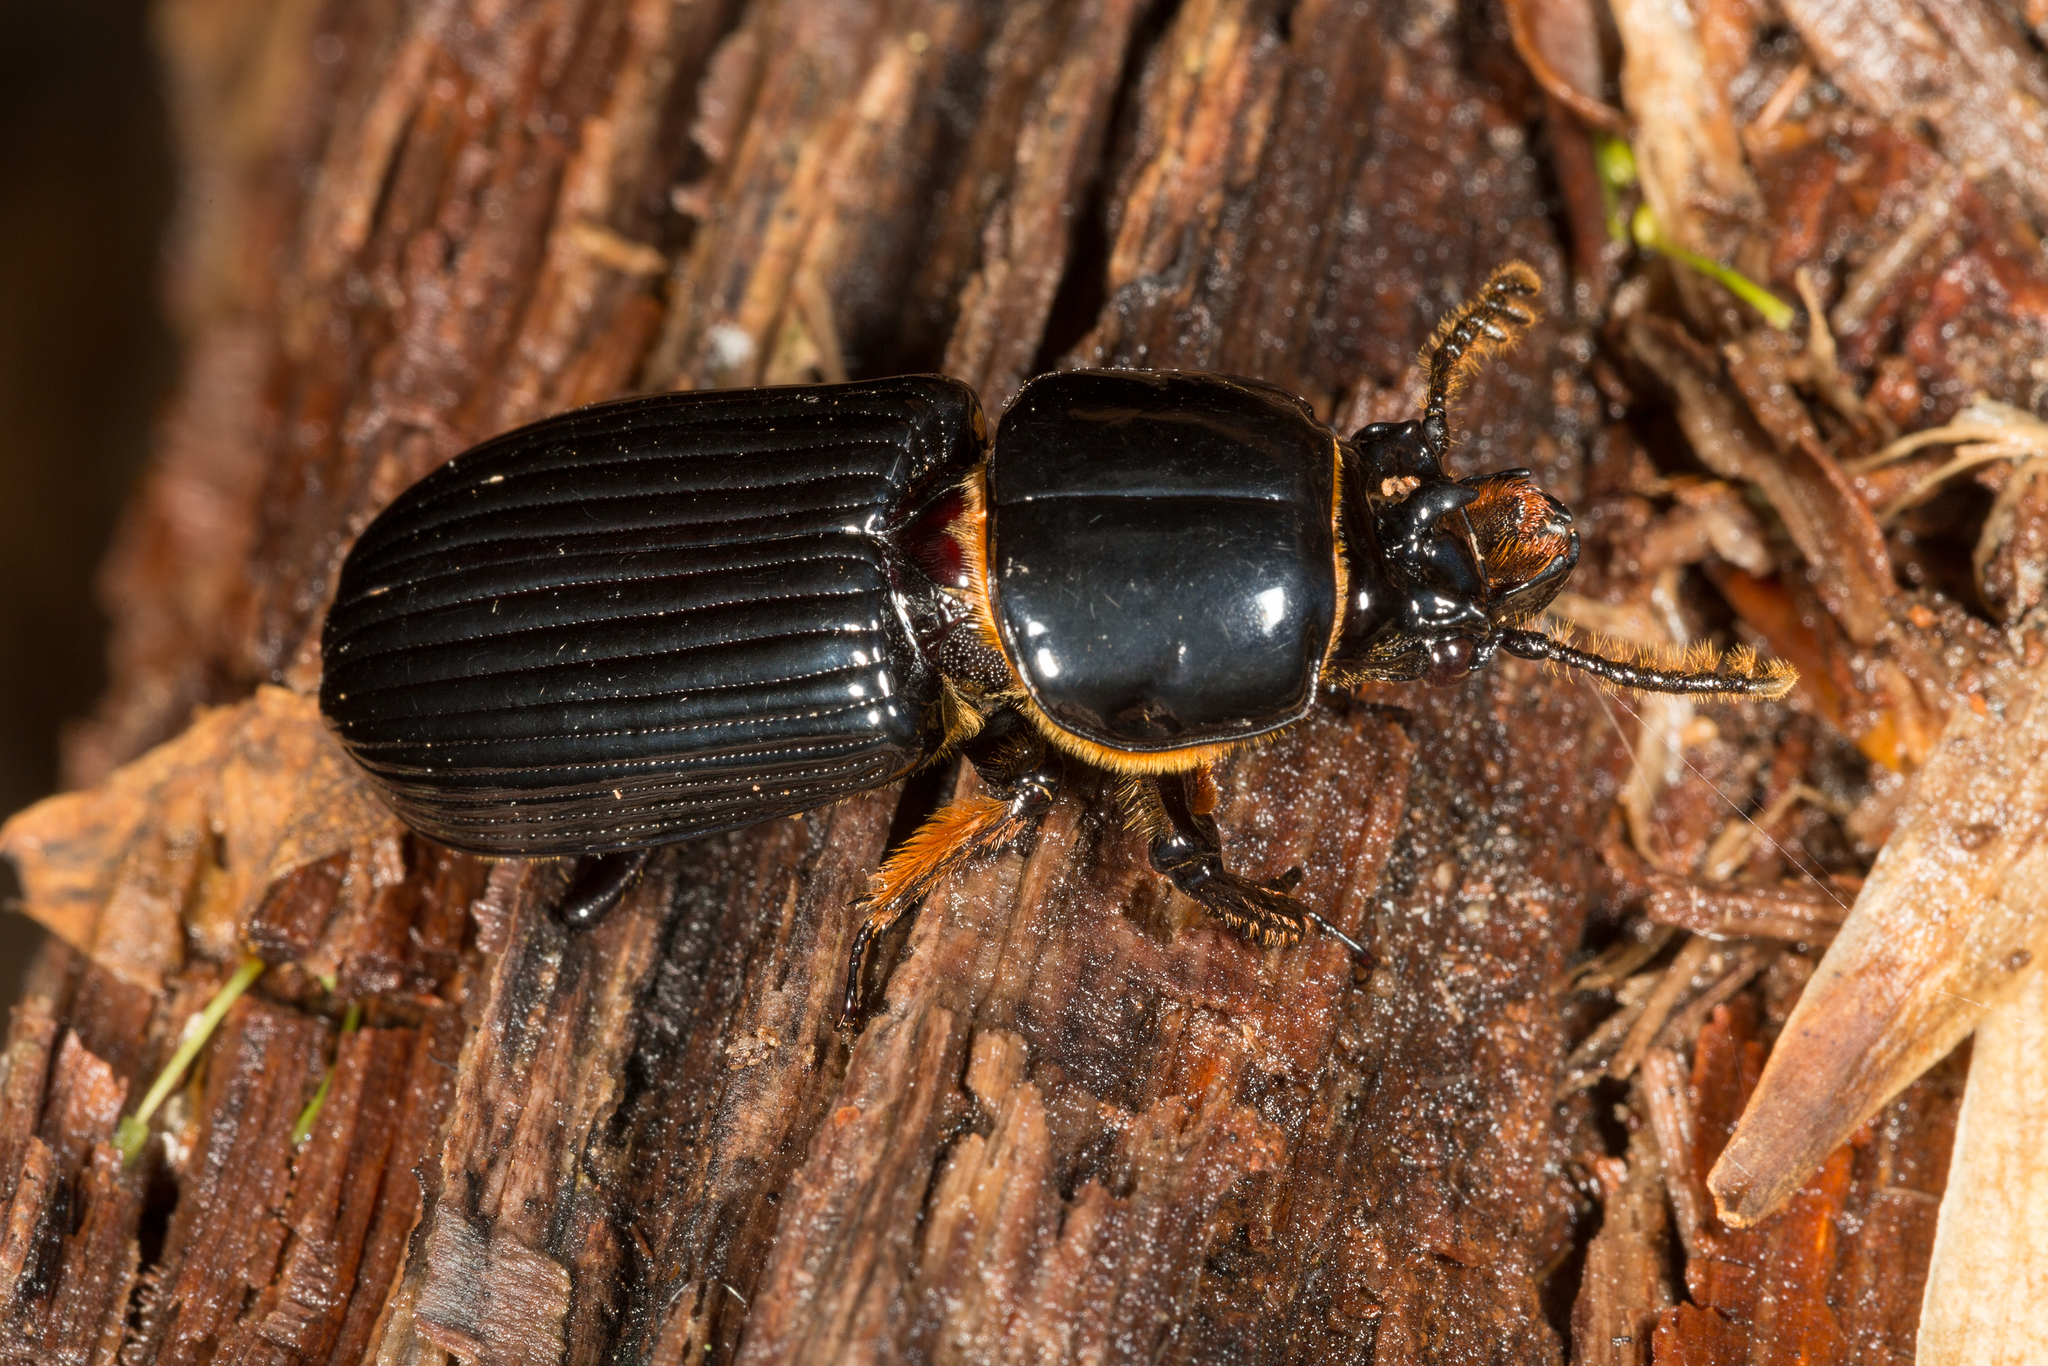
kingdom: Animalia
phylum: Arthropoda
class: Insecta
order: Coleoptera
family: Passalidae
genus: Odontotaenius
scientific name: Odontotaenius disjunctus
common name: Patent leather beetle
